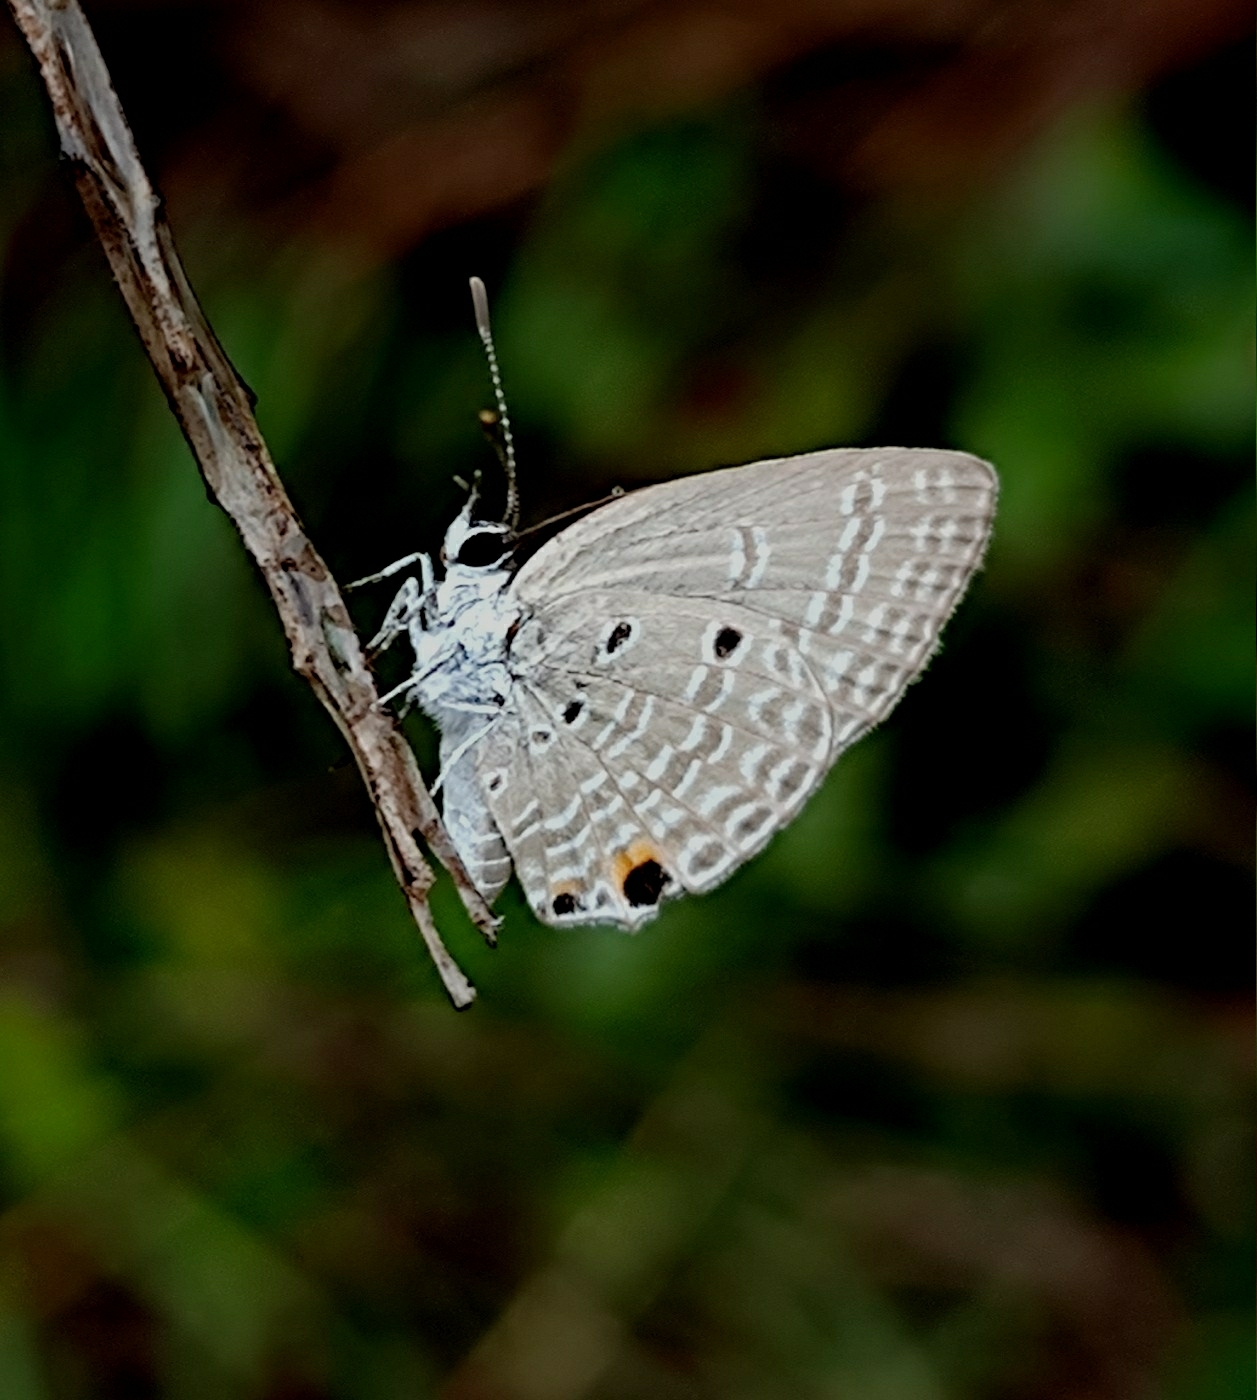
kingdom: Animalia
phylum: Arthropoda
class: Insecta
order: Lepidoptera
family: Lycaenidae
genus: Luthrodes
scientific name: Luthrodes pandava
